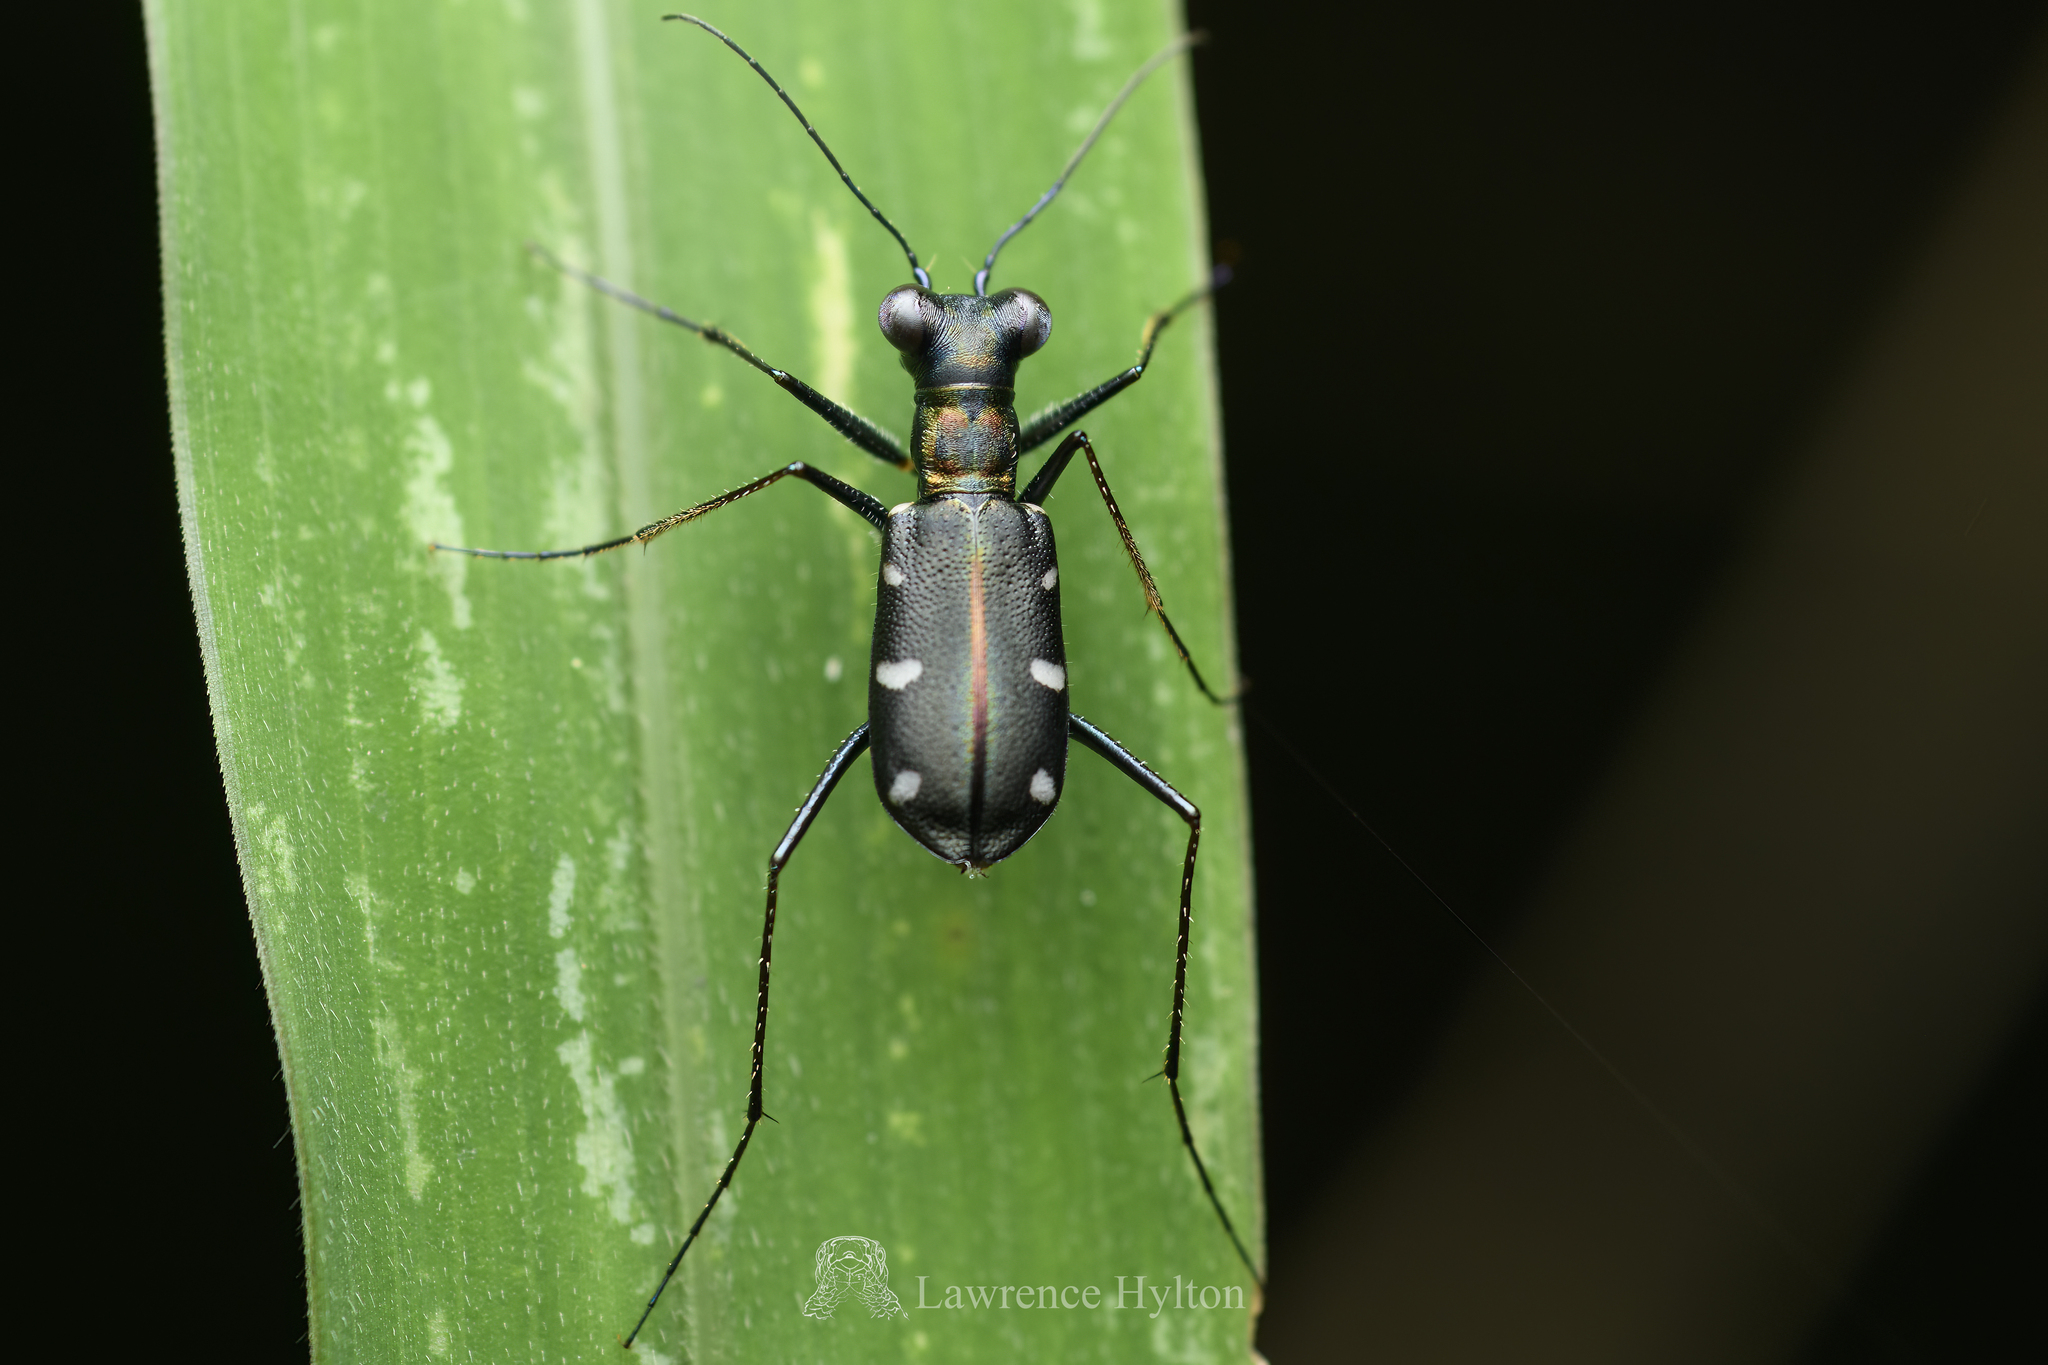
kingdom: Animalia
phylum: Arthropoda
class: Insecta
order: Coleoptera
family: Carabidae
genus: Cylindera
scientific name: Cylindera decolorata
